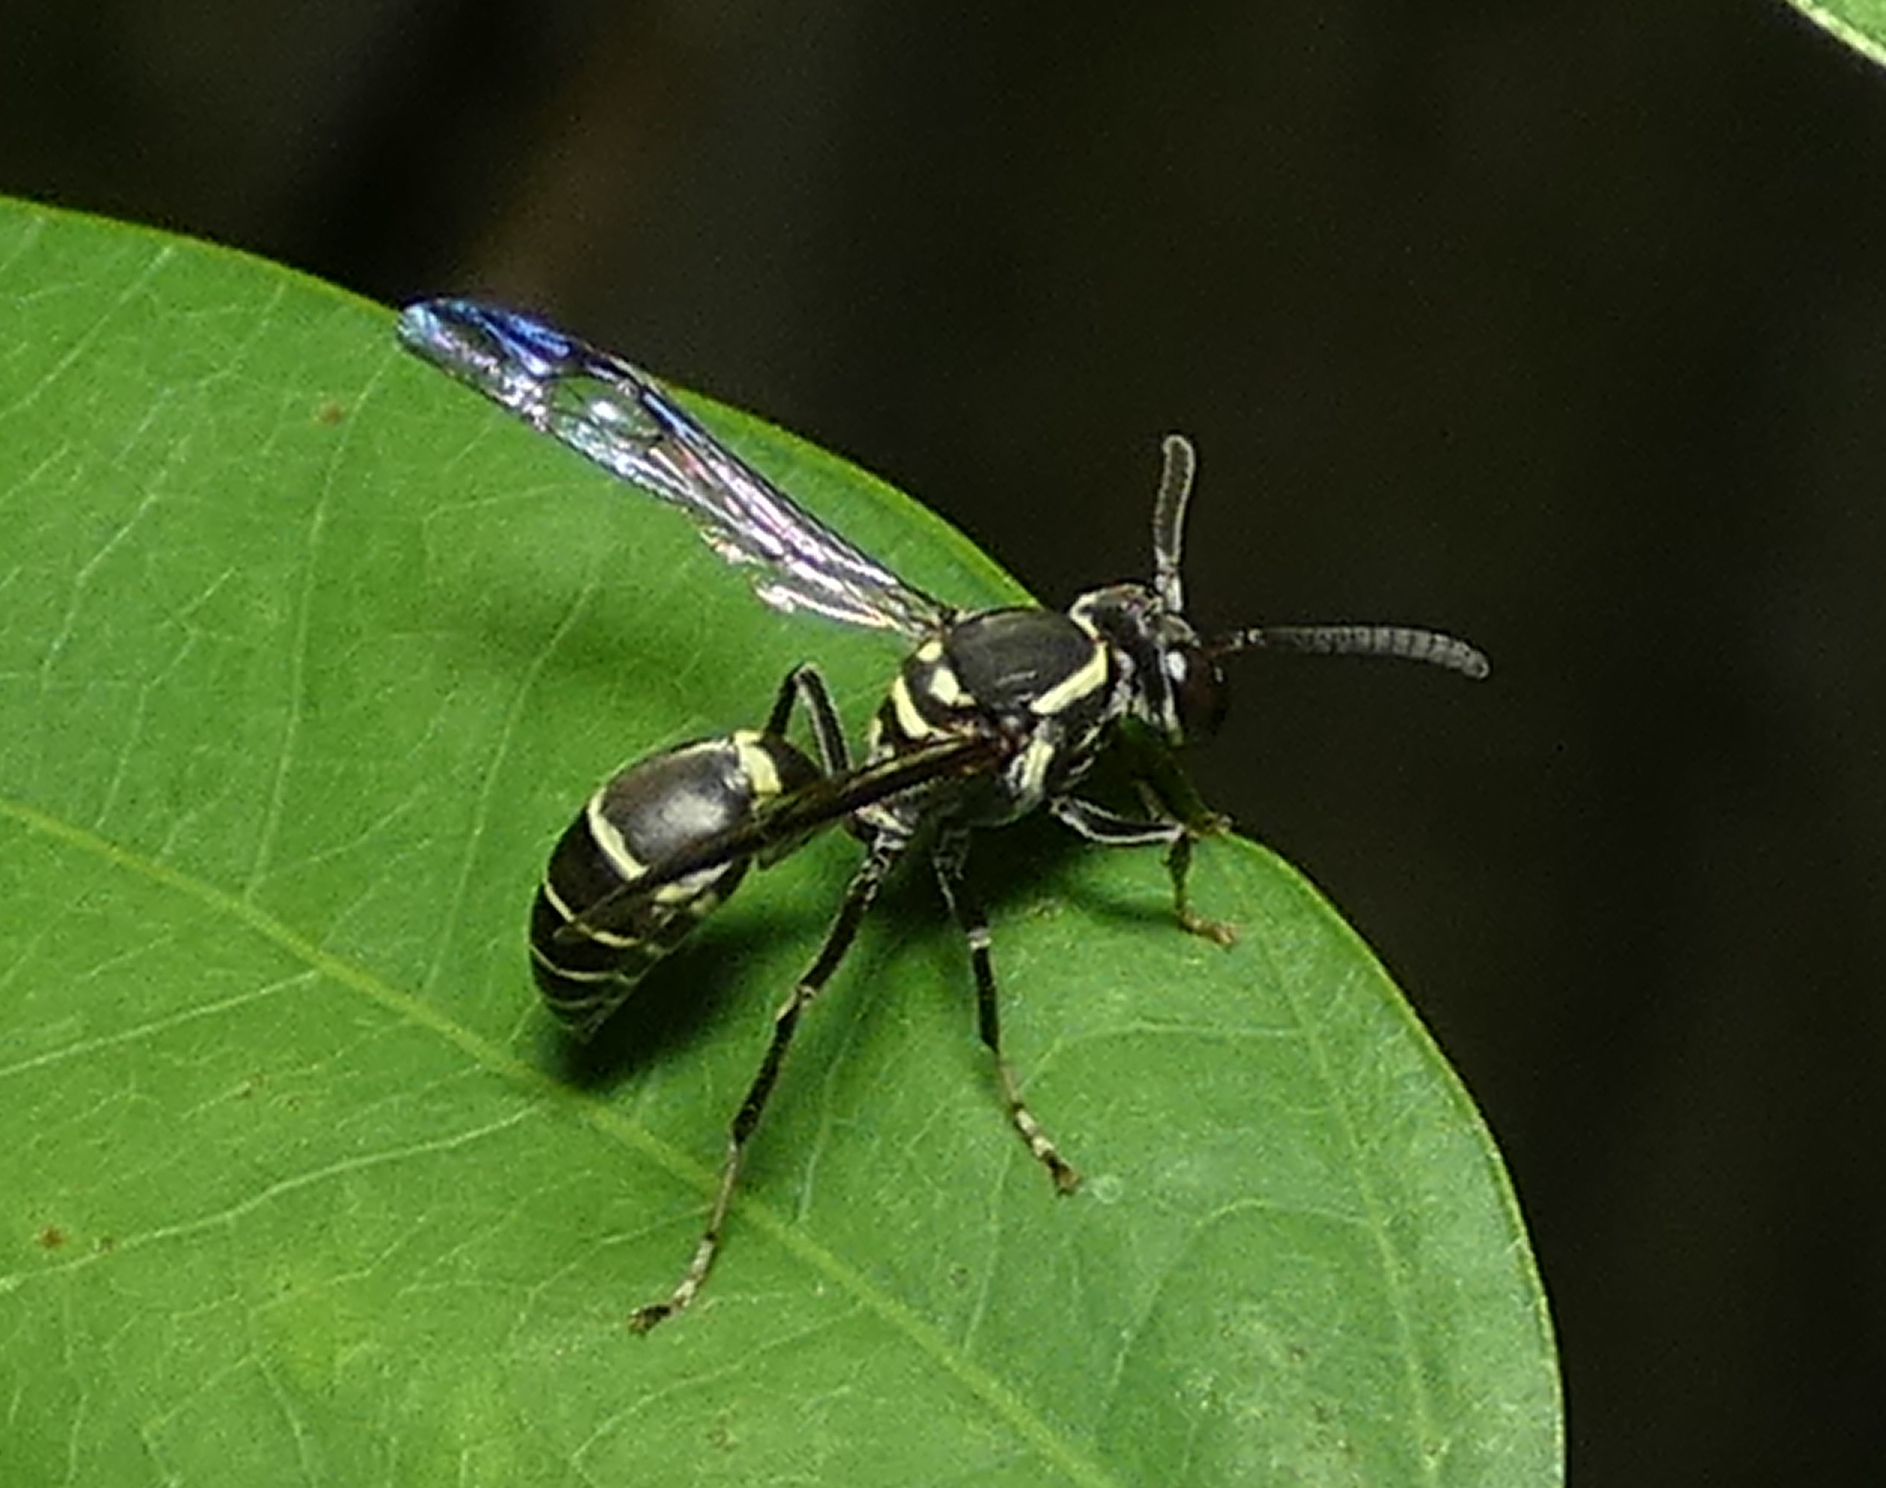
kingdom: Animalia
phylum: Arthropoda
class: Insecta
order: Hymenoptera
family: Eumenidae
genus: Polybia
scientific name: Polybia occidentalis
